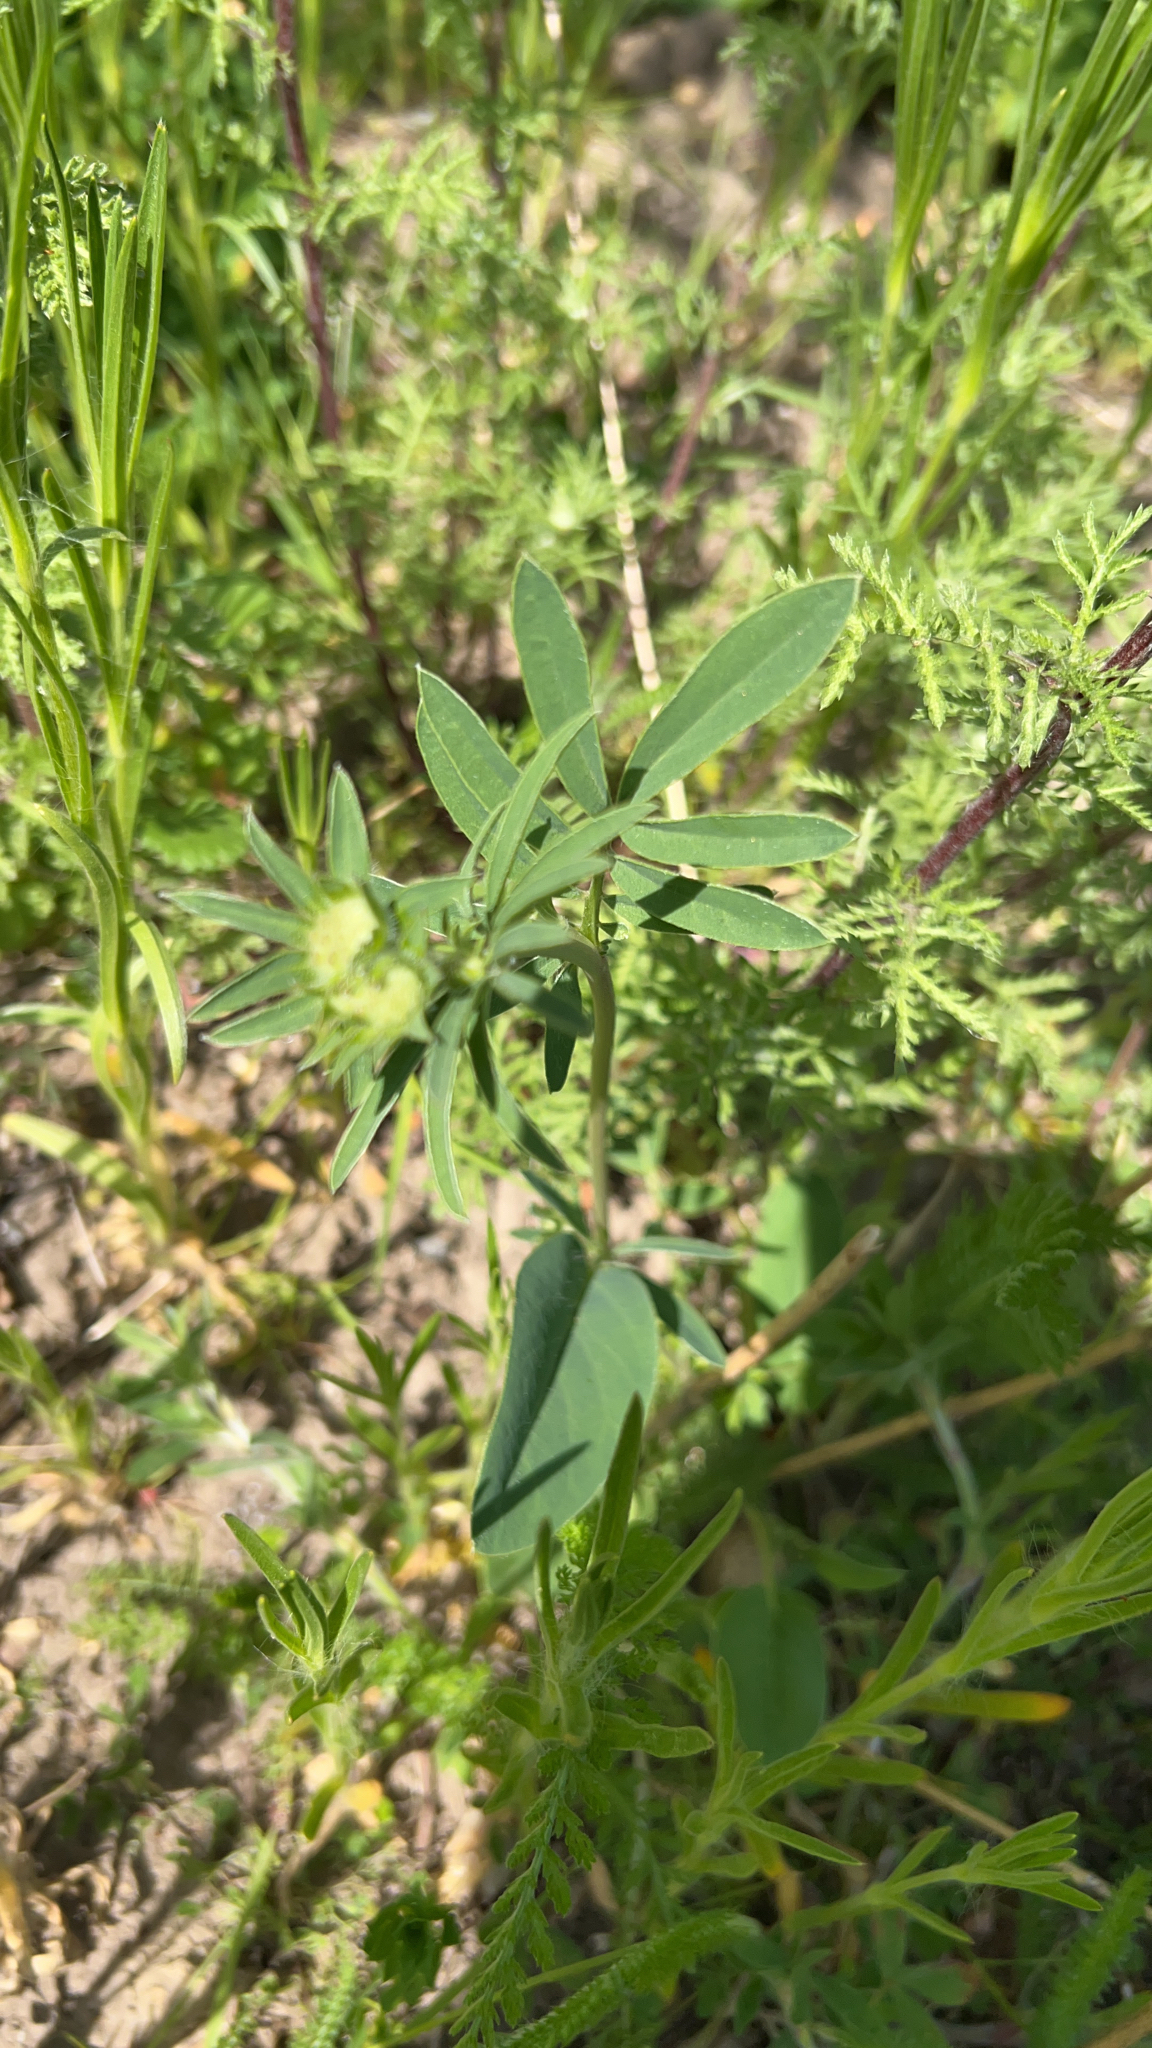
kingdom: Plantae
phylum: Tracheophyta
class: Magnoliopsida
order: Fabales
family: Fabaceae
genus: Anthyllis
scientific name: Anthyllis vulneraria
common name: Kidney vetch
